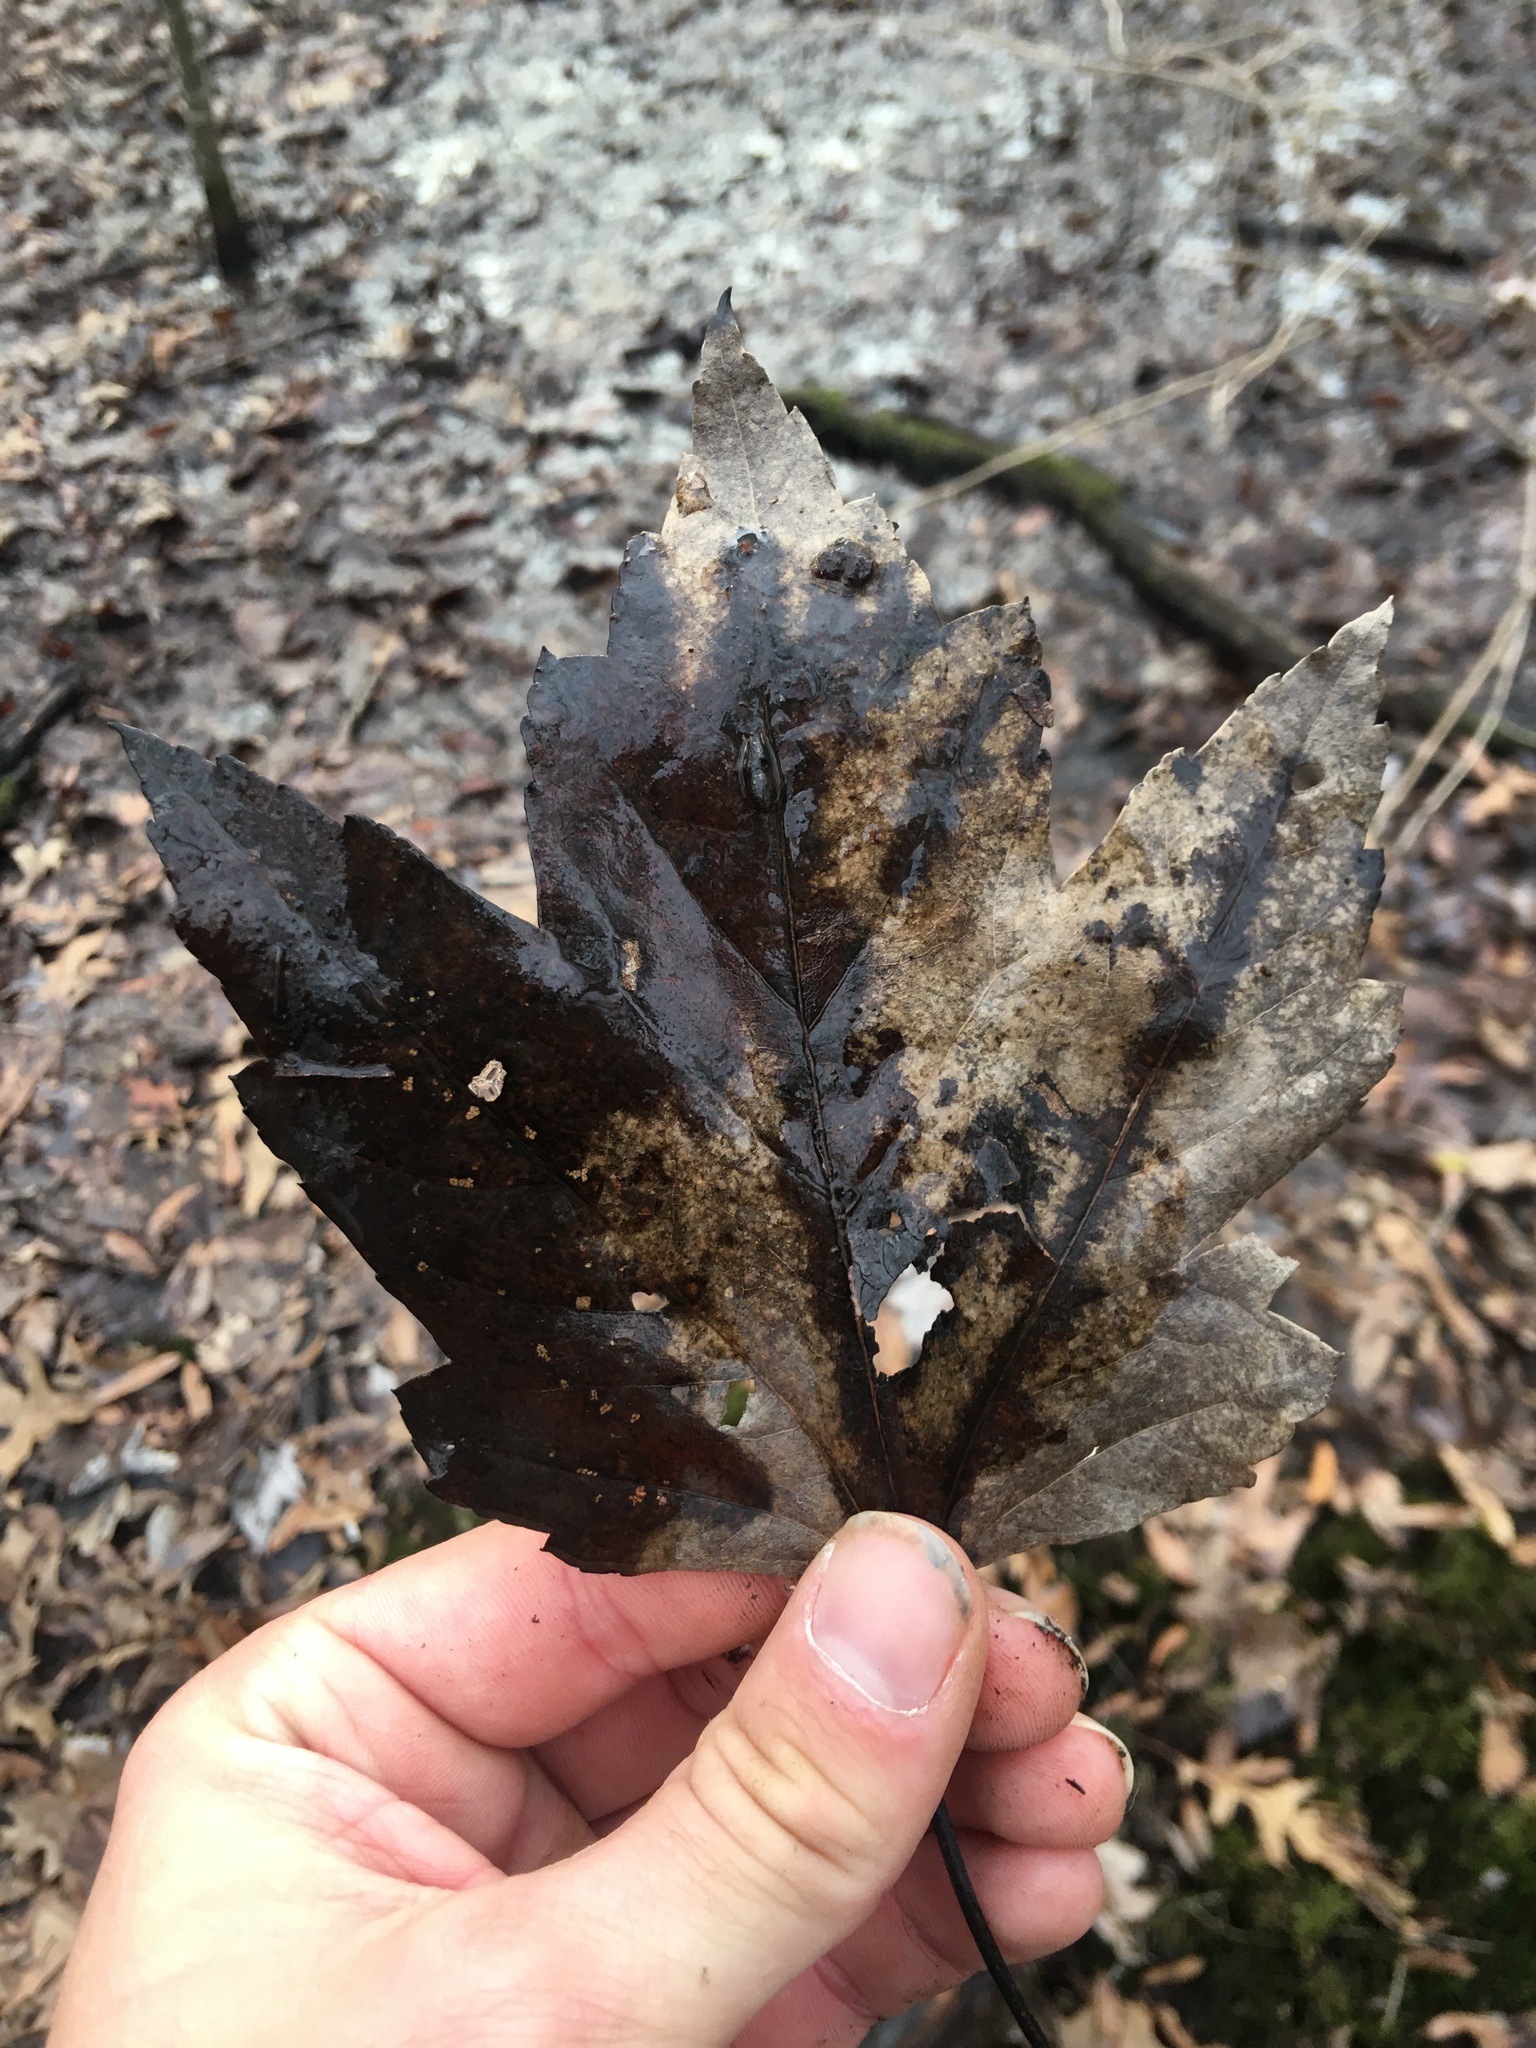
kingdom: Plantae
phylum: Tracheophyta
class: Magnoliopsida
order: Sapindales
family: Sapindaceae
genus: Acer
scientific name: Acer rubrum
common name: Red maple
